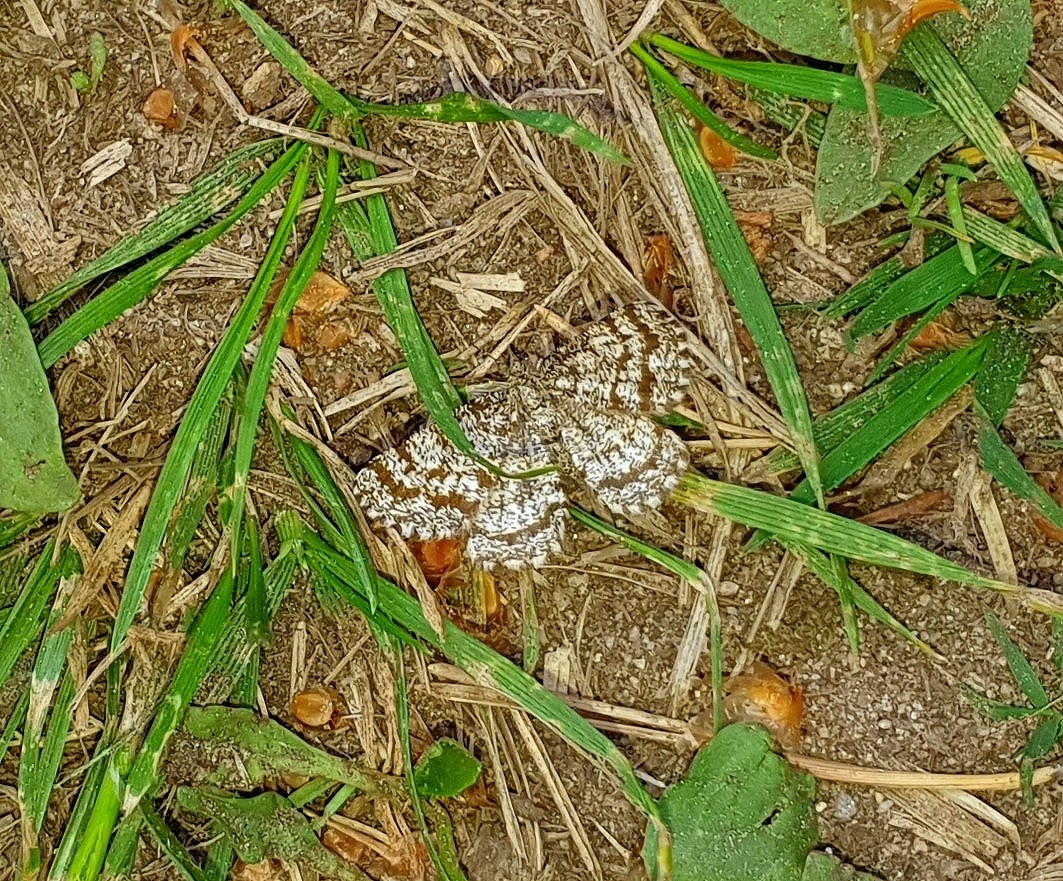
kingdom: Animalia
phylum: Arthropoda
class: Insecta
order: Lepidoptera
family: Geometridae
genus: Ematurga
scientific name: Ematurga atomaria
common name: Common heath
